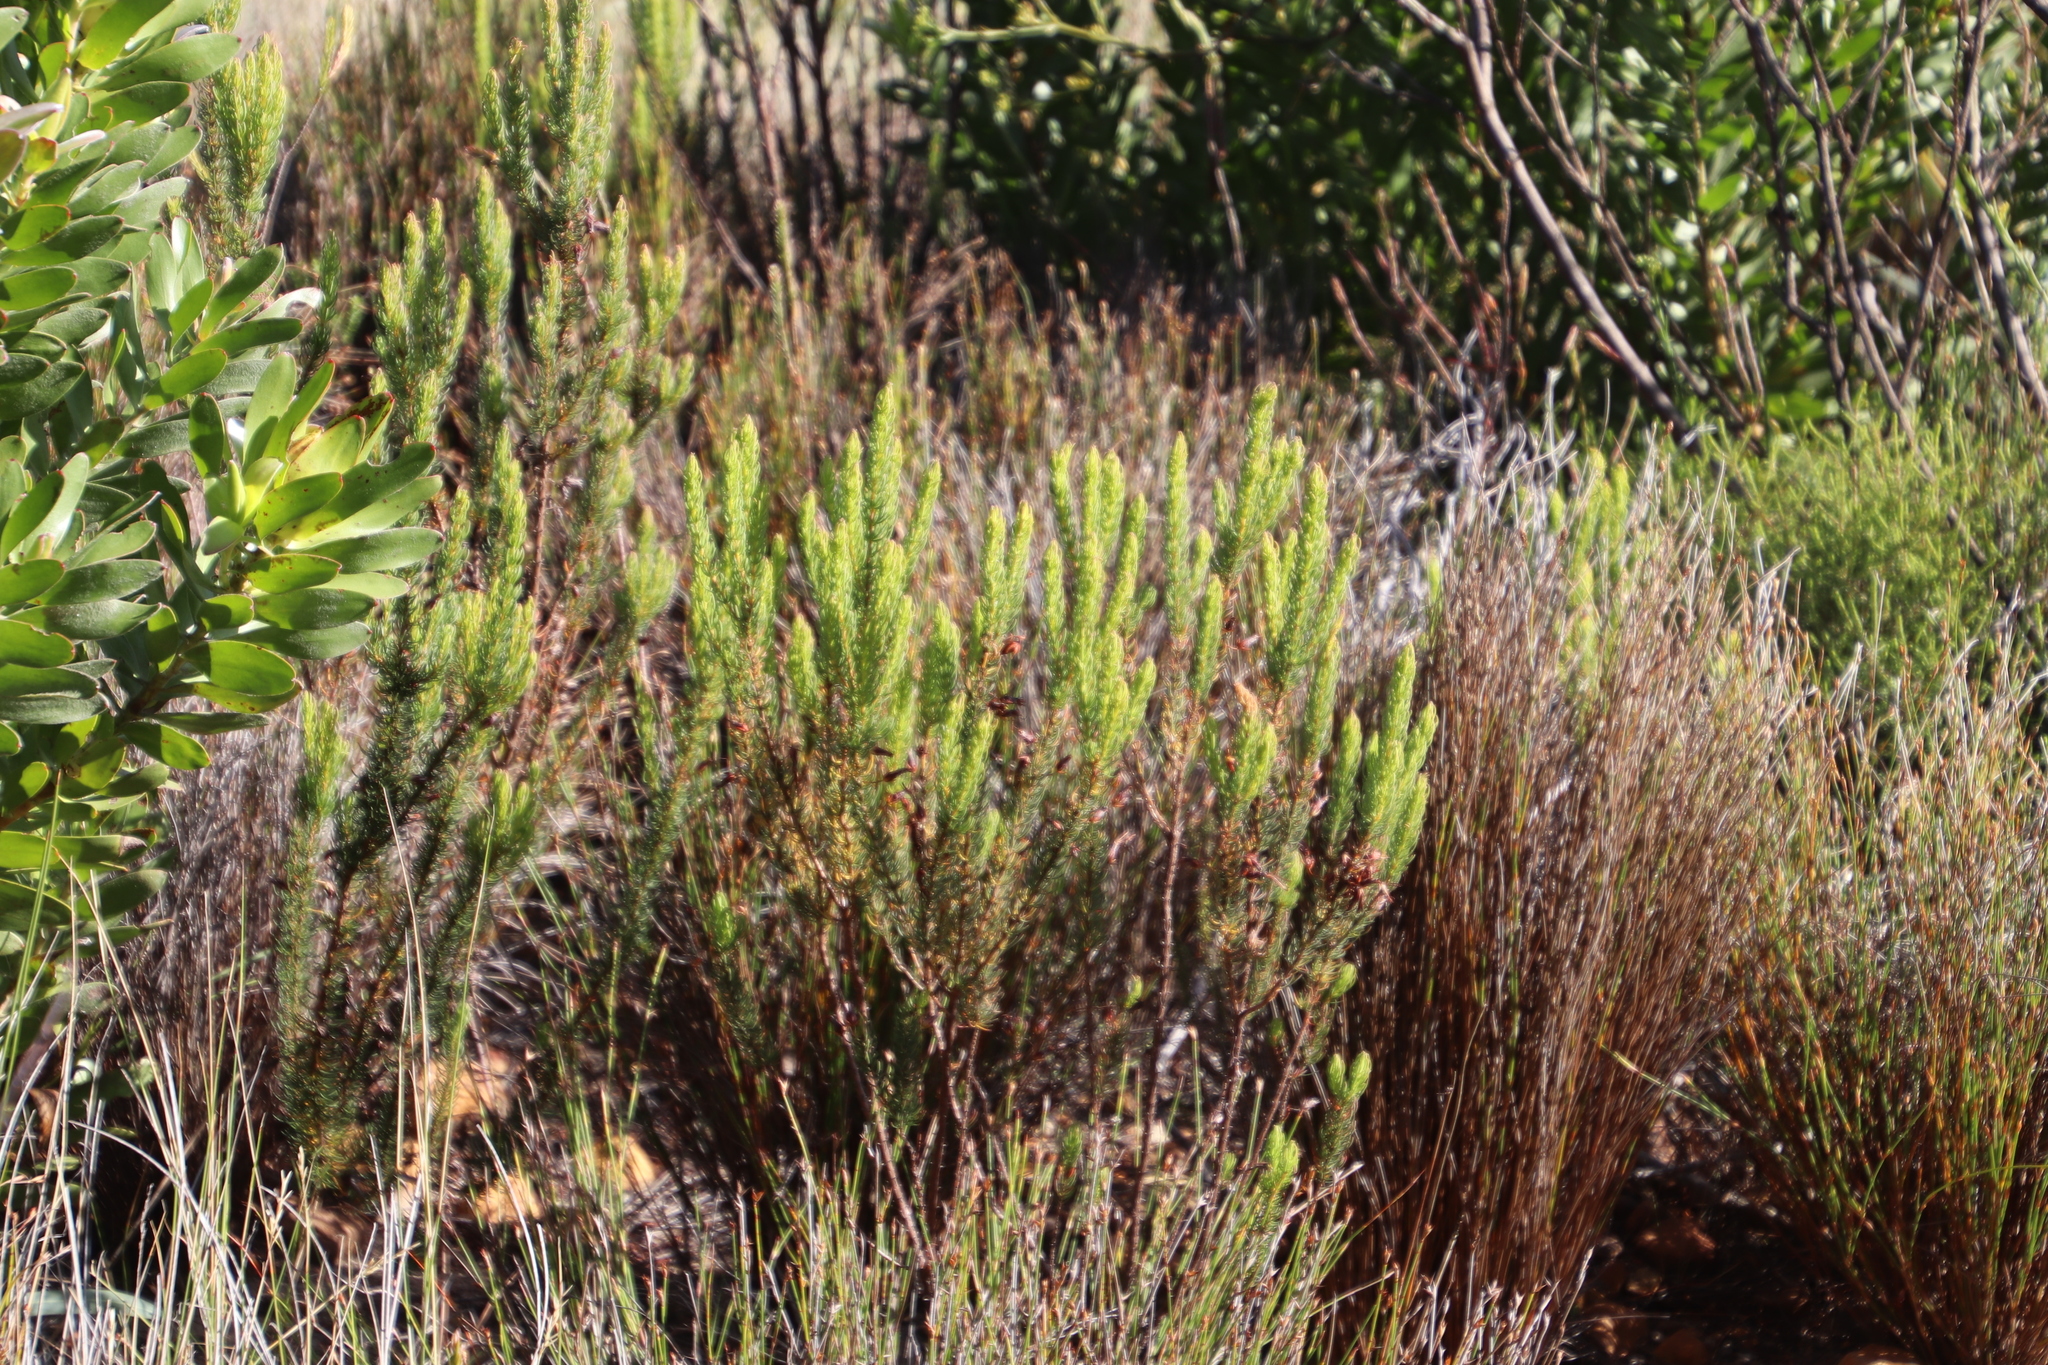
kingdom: Plantae
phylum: Tracheophyta
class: Magnoliopsida
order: Ericales
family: Ericaceae
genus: Erica
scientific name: Erica plukenetii
